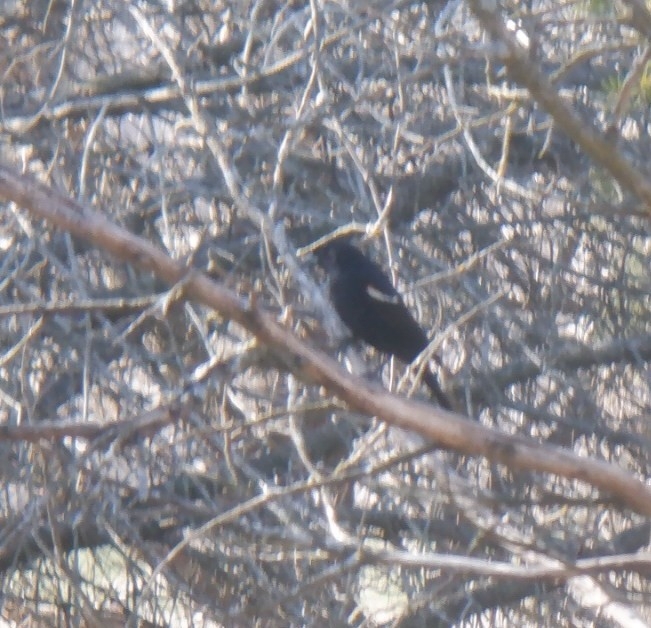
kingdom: Animalia
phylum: Chordata
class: Aves
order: Passeriformes
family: Icteridae
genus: Agelaius
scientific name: Agelaius phoeniceus
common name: Red-winged blackbird
